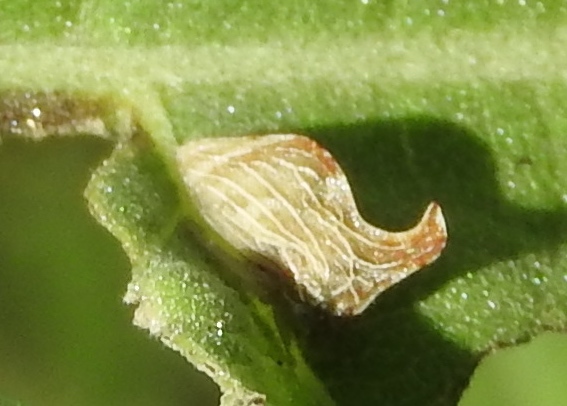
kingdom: Animalia
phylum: Arthropoda
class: Insecta
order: Hemiptera
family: Membracidae
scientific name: Membracidae
